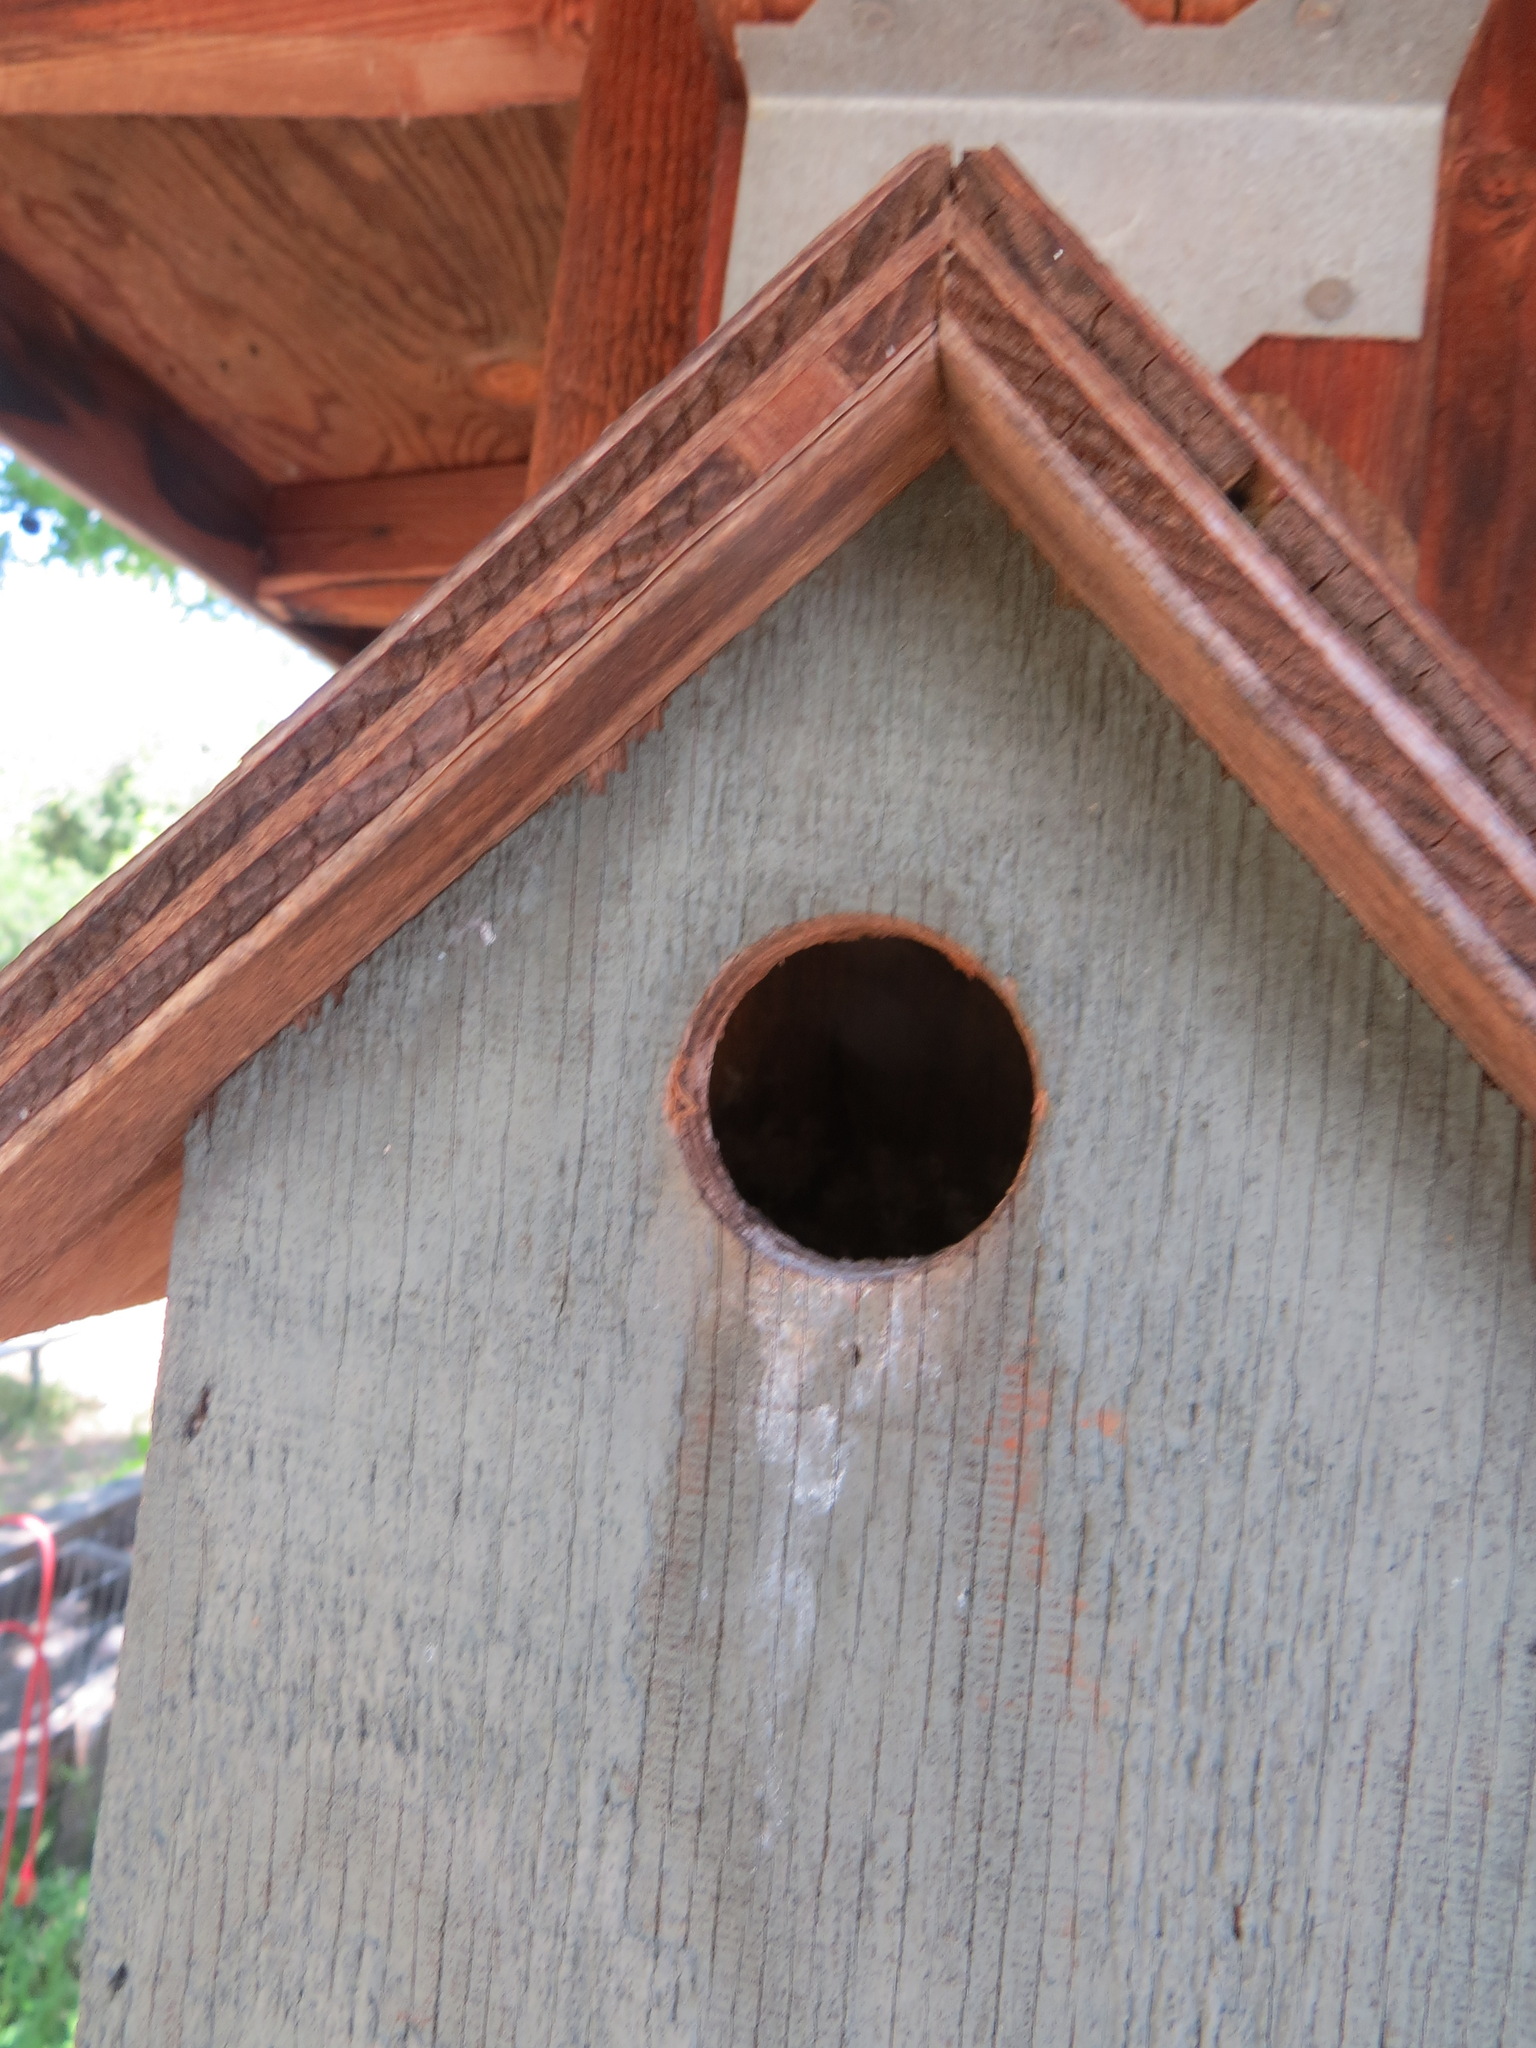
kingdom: Animalia
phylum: Chordata
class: Aves
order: Passeriformes
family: Paridae
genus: Poecile
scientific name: Poecile rufescens
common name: Chestnut-backed chickadee
